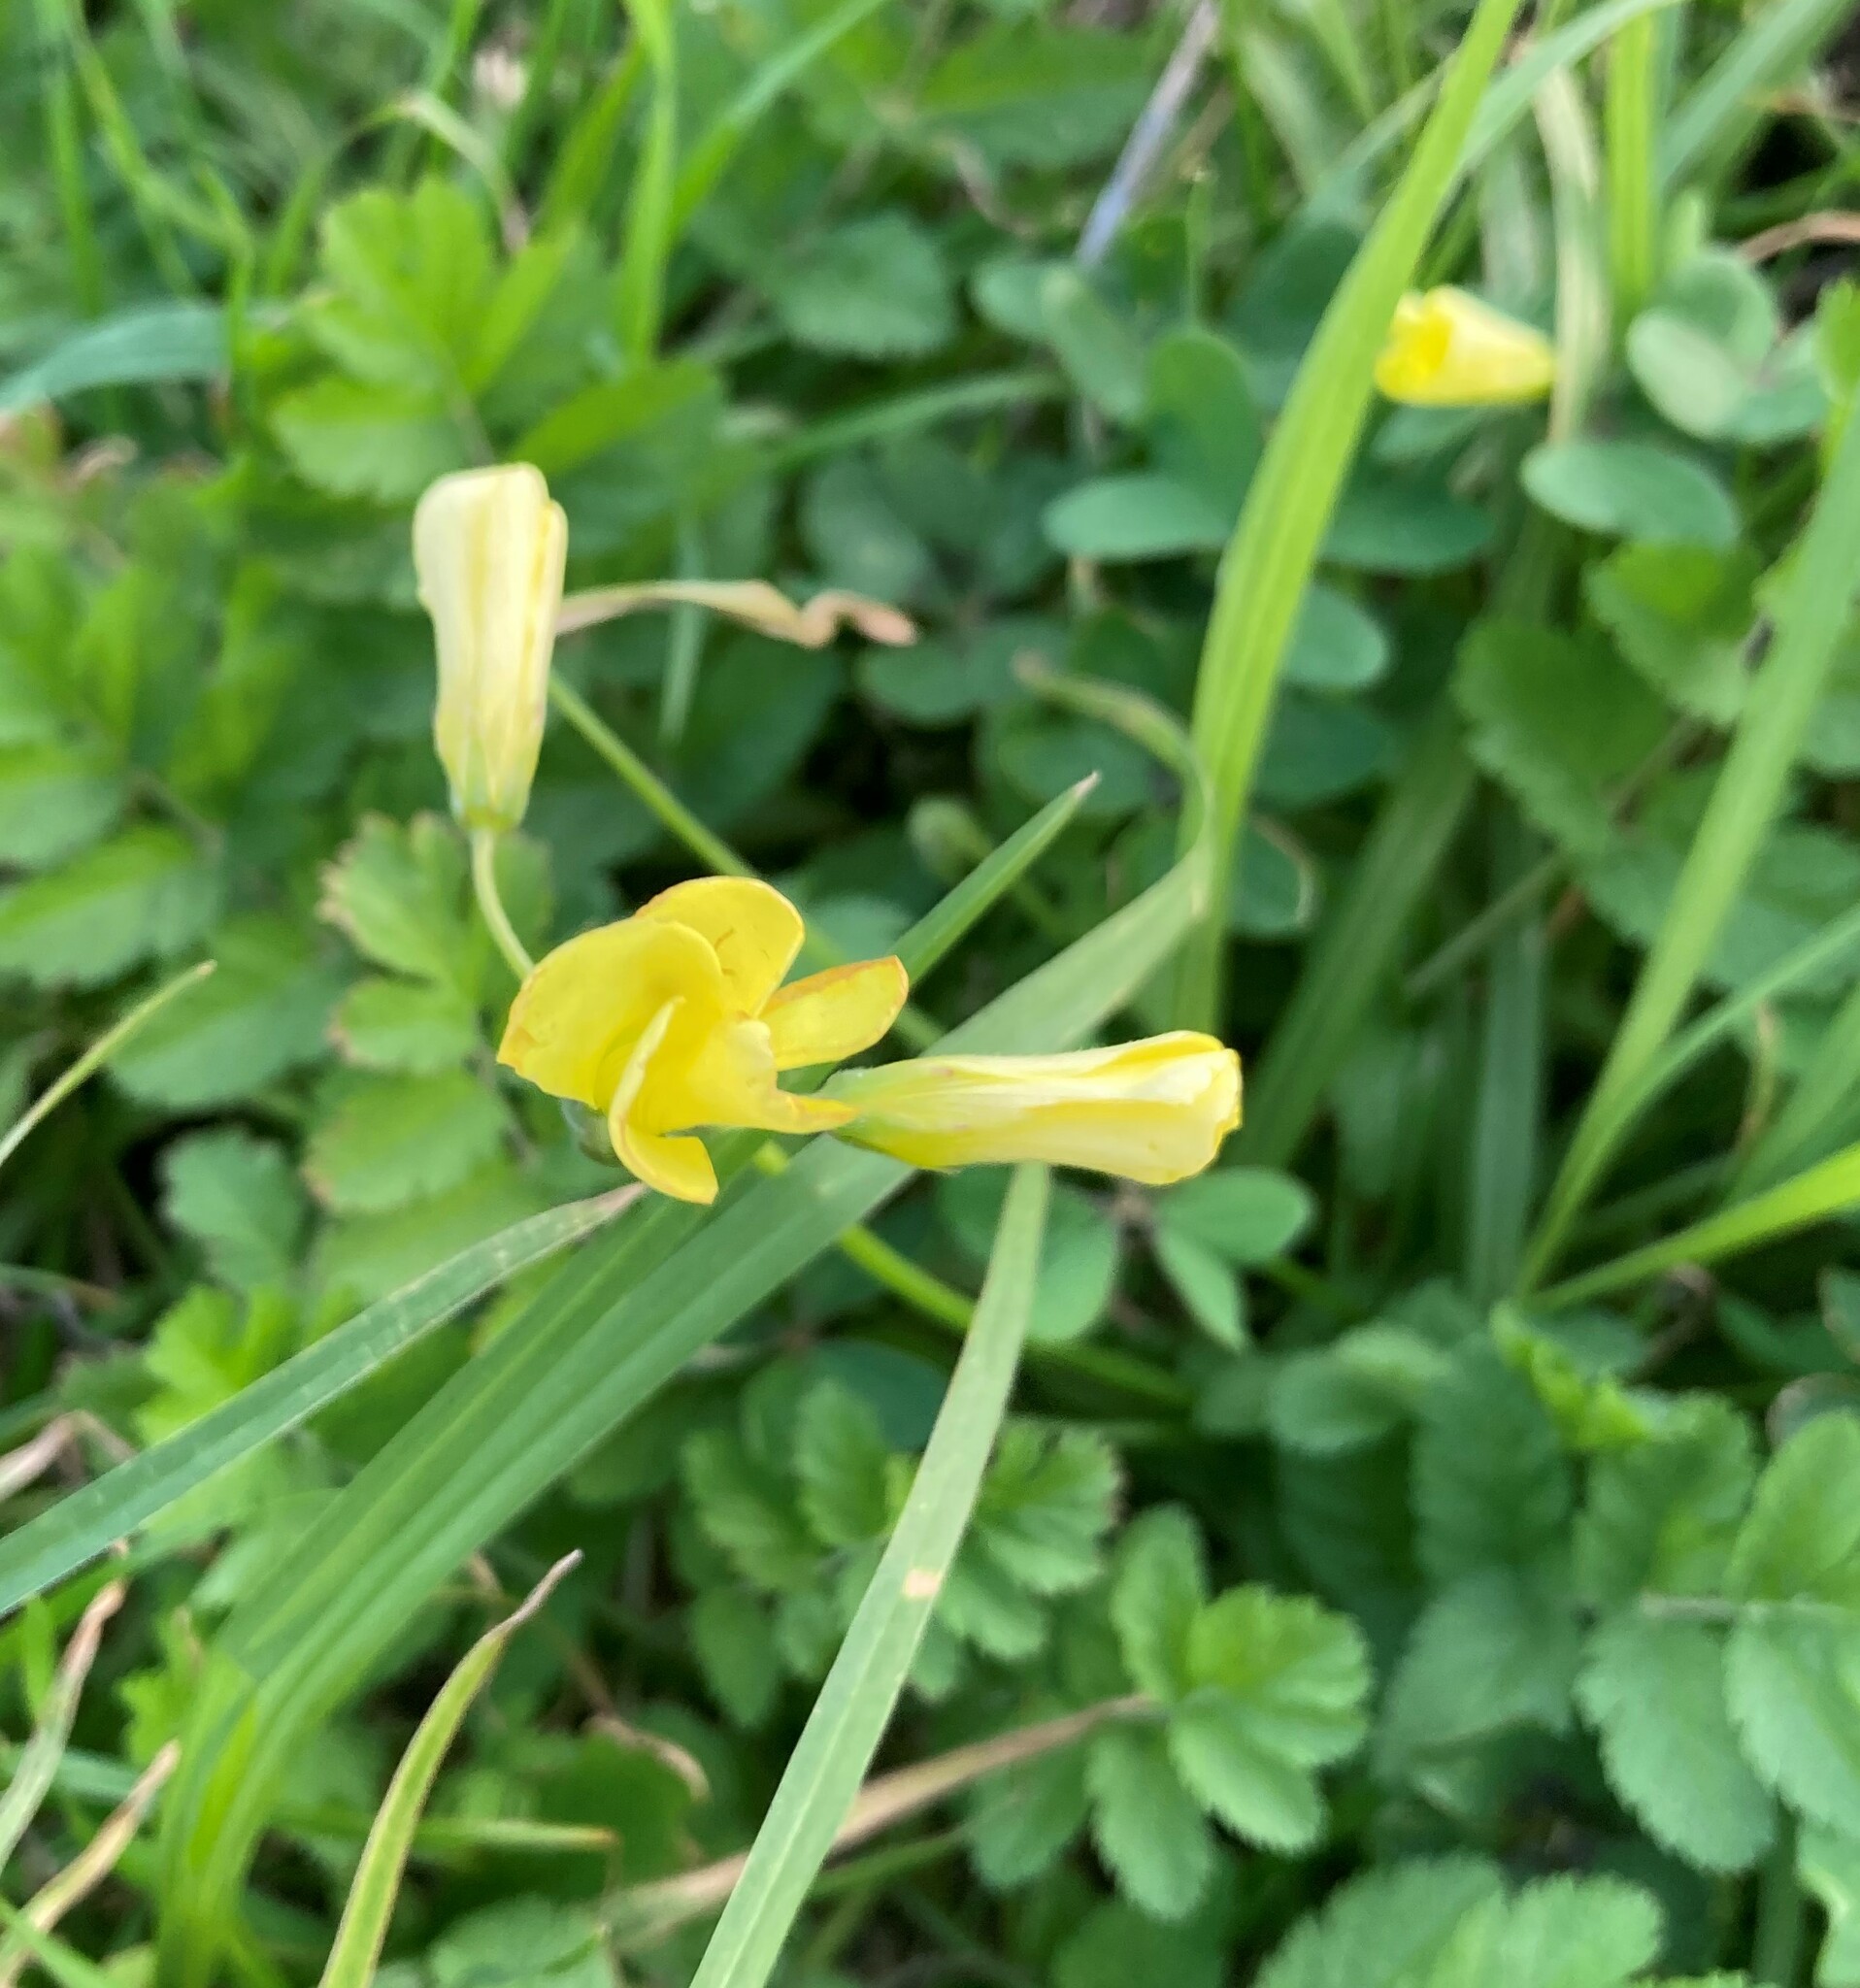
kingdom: Plantae
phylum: Tracheophyta
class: Magnoliopsida
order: Oxalidales
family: Oxalidaceae
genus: Oxalis
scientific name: Oxalis pes-caprae
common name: Bermuda-buttercup
